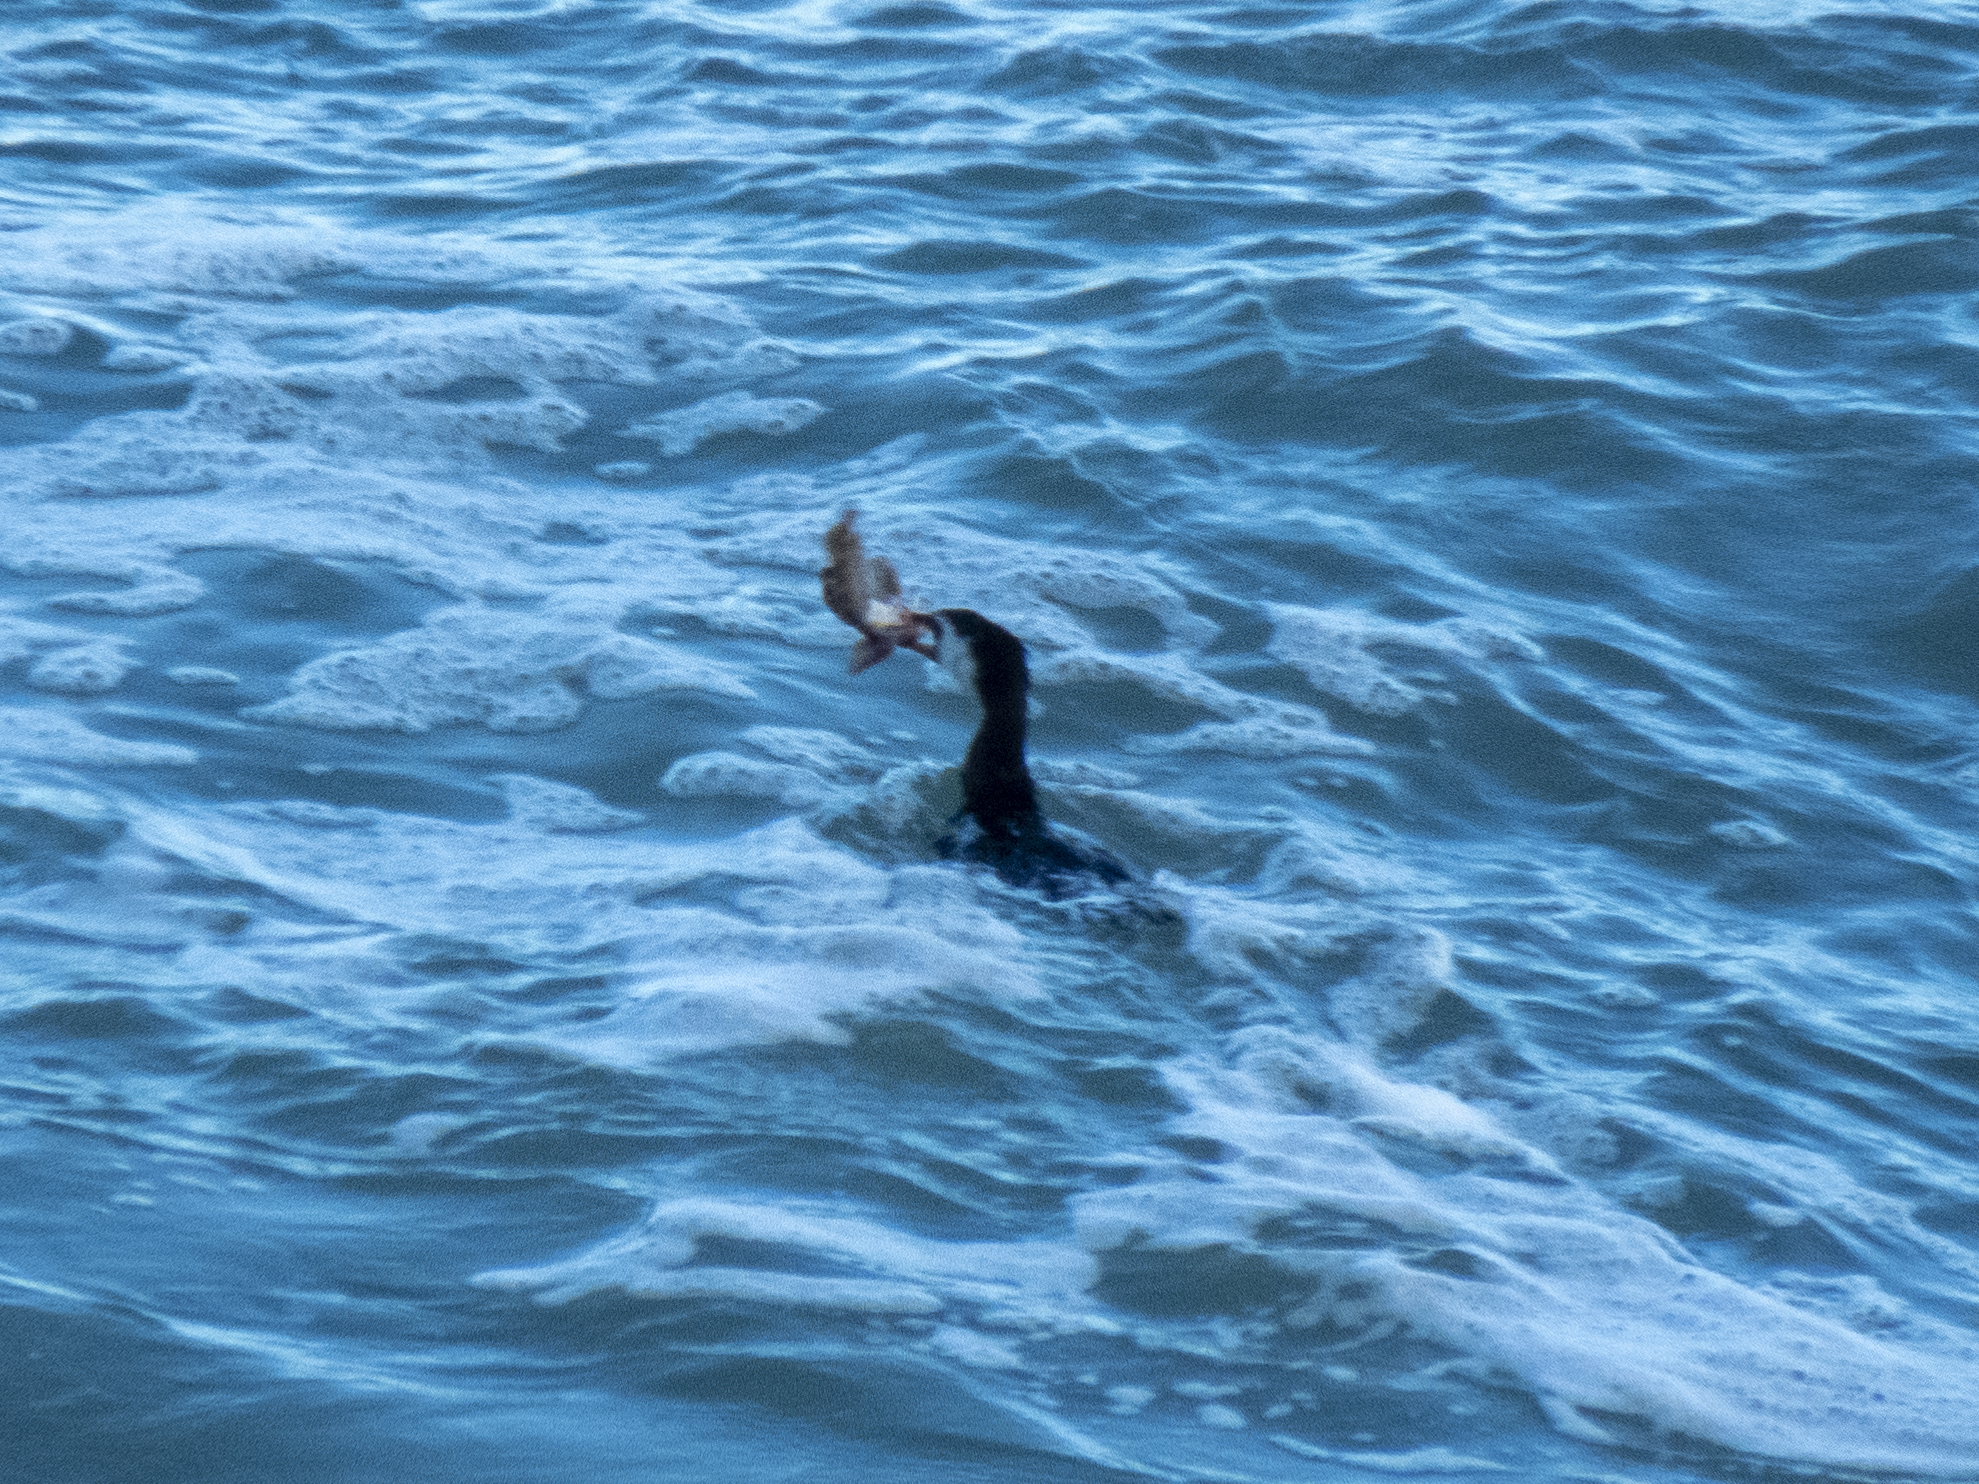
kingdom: Animalia
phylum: Chordata
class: Aves
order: Suliformes
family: Phalacrocoracidae
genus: Microcarbo
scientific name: Microcarbo melanoleucos
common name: Little pied cormorant
